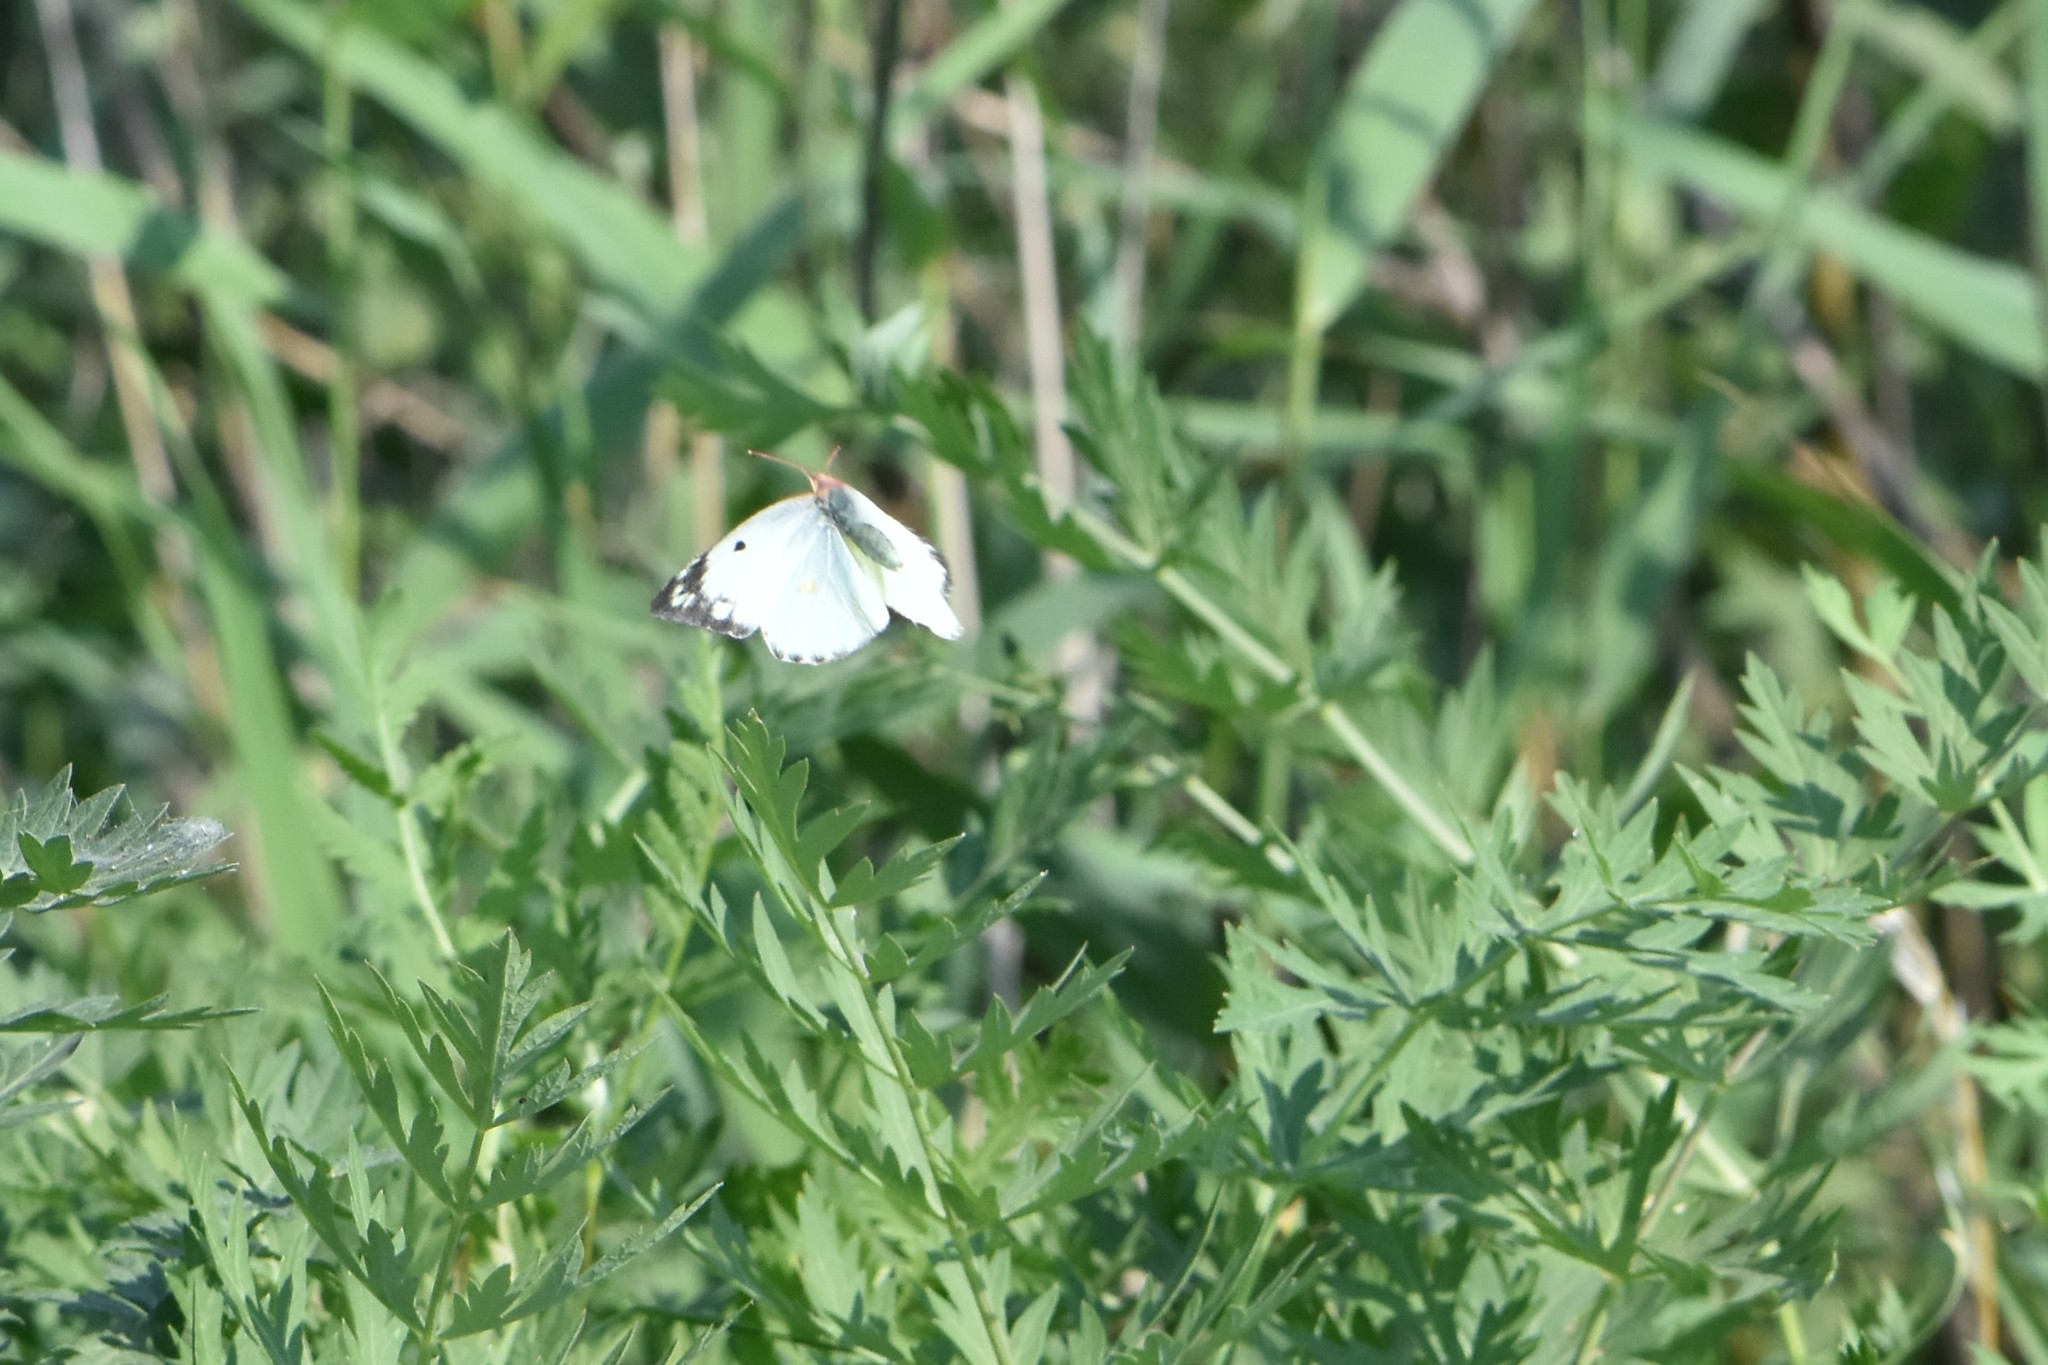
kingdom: Animalia
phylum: Arthropoda
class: Insecta
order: Lepidoptera
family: Pieridae
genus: Colias
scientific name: Colias hyale
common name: Pale clouded yellow
